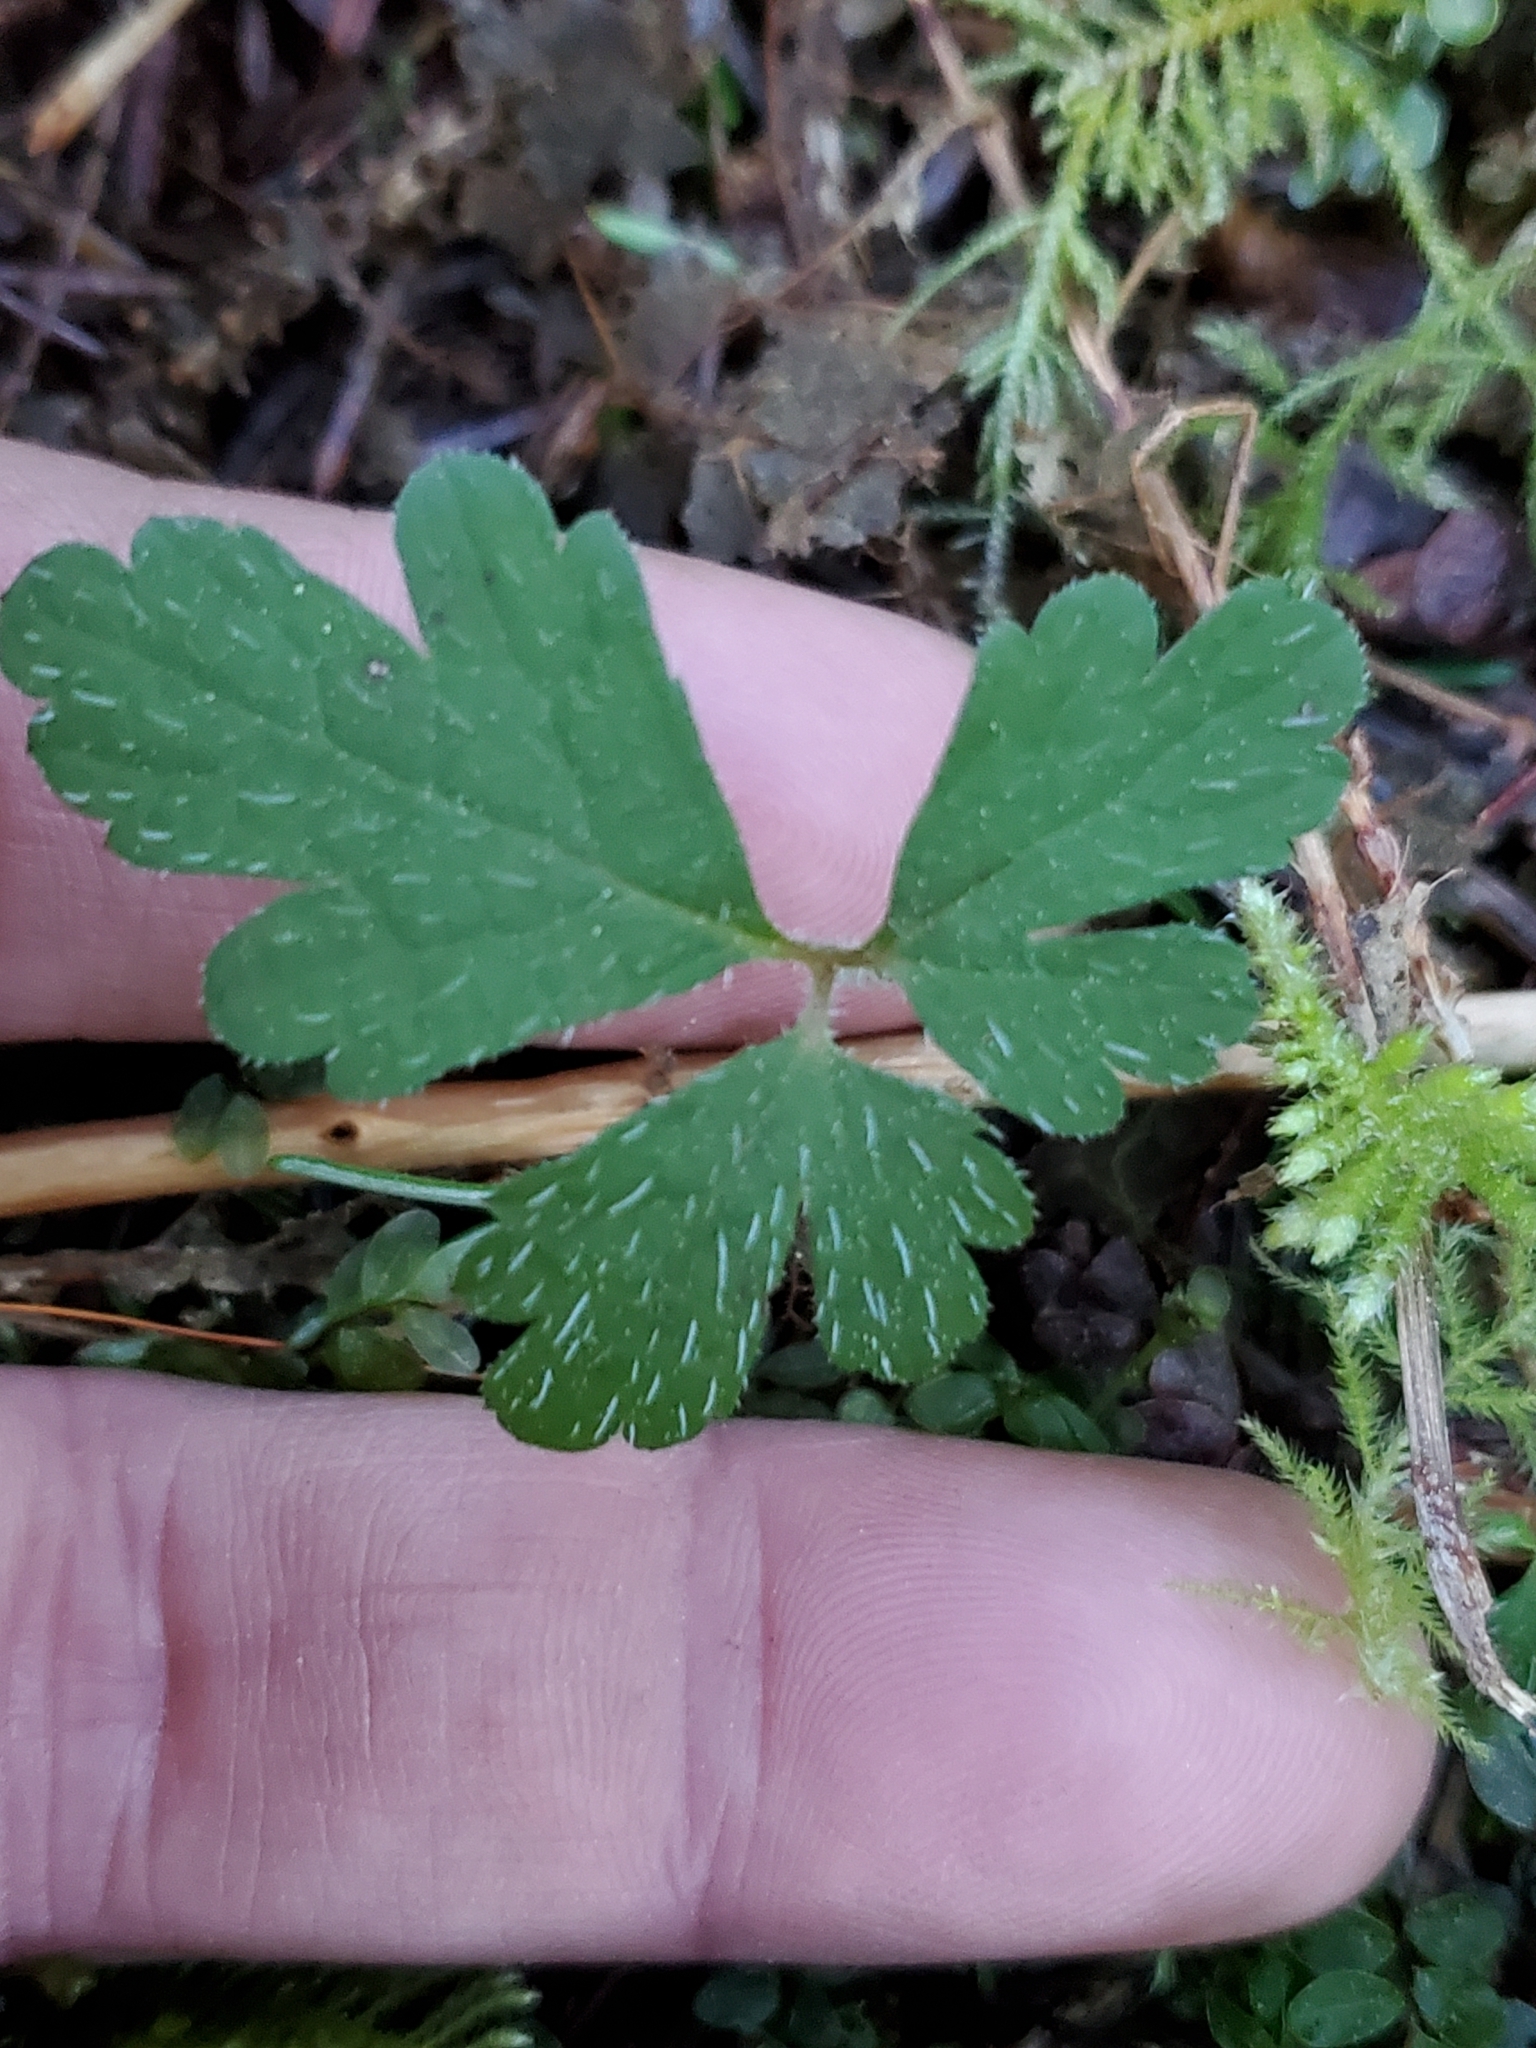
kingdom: Plantae
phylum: Tracheophyta
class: Magnoliopsida
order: Saxifragales
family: Saxifragaceae
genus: Tiarella
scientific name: Tiarella trifoliata
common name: Sugar-scoop
